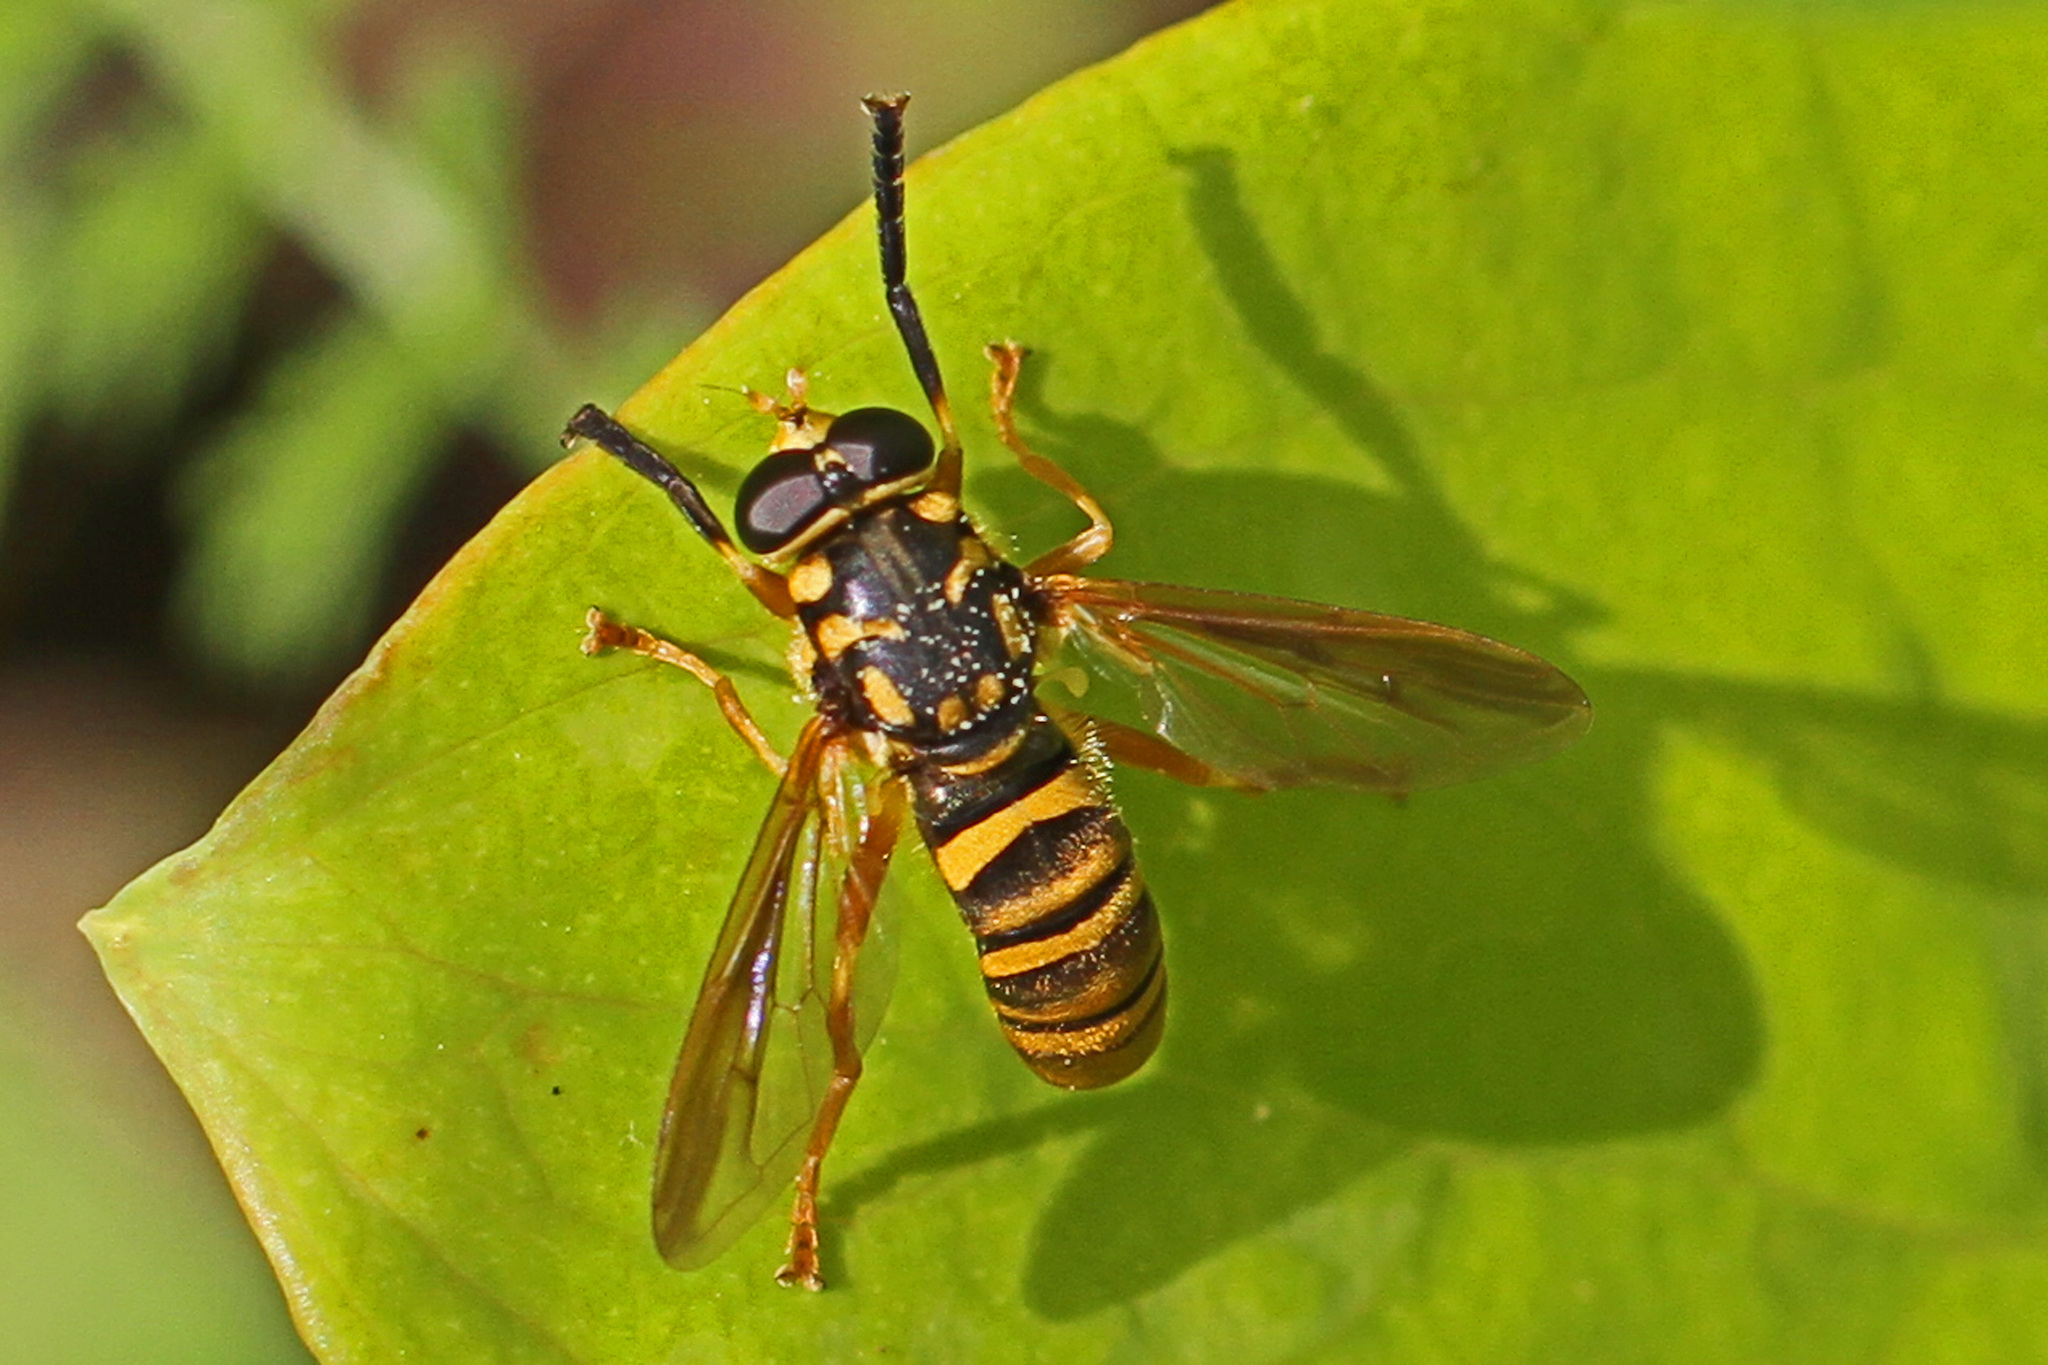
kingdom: Animalia
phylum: Arthropoda
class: Insecta
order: Diptera
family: Syrphidae
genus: Temnostoma
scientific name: Temnostoma daochum
